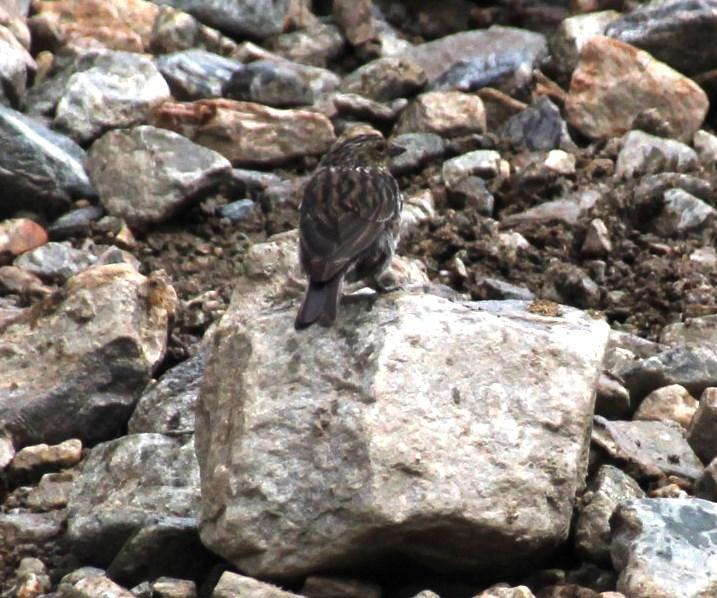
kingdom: Animalia
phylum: Chordata
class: Aves
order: Passeriformes
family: Thraupidae
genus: Geospizopsis
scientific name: Geospizopsis unicolor
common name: Plumbeous sierra-finch
